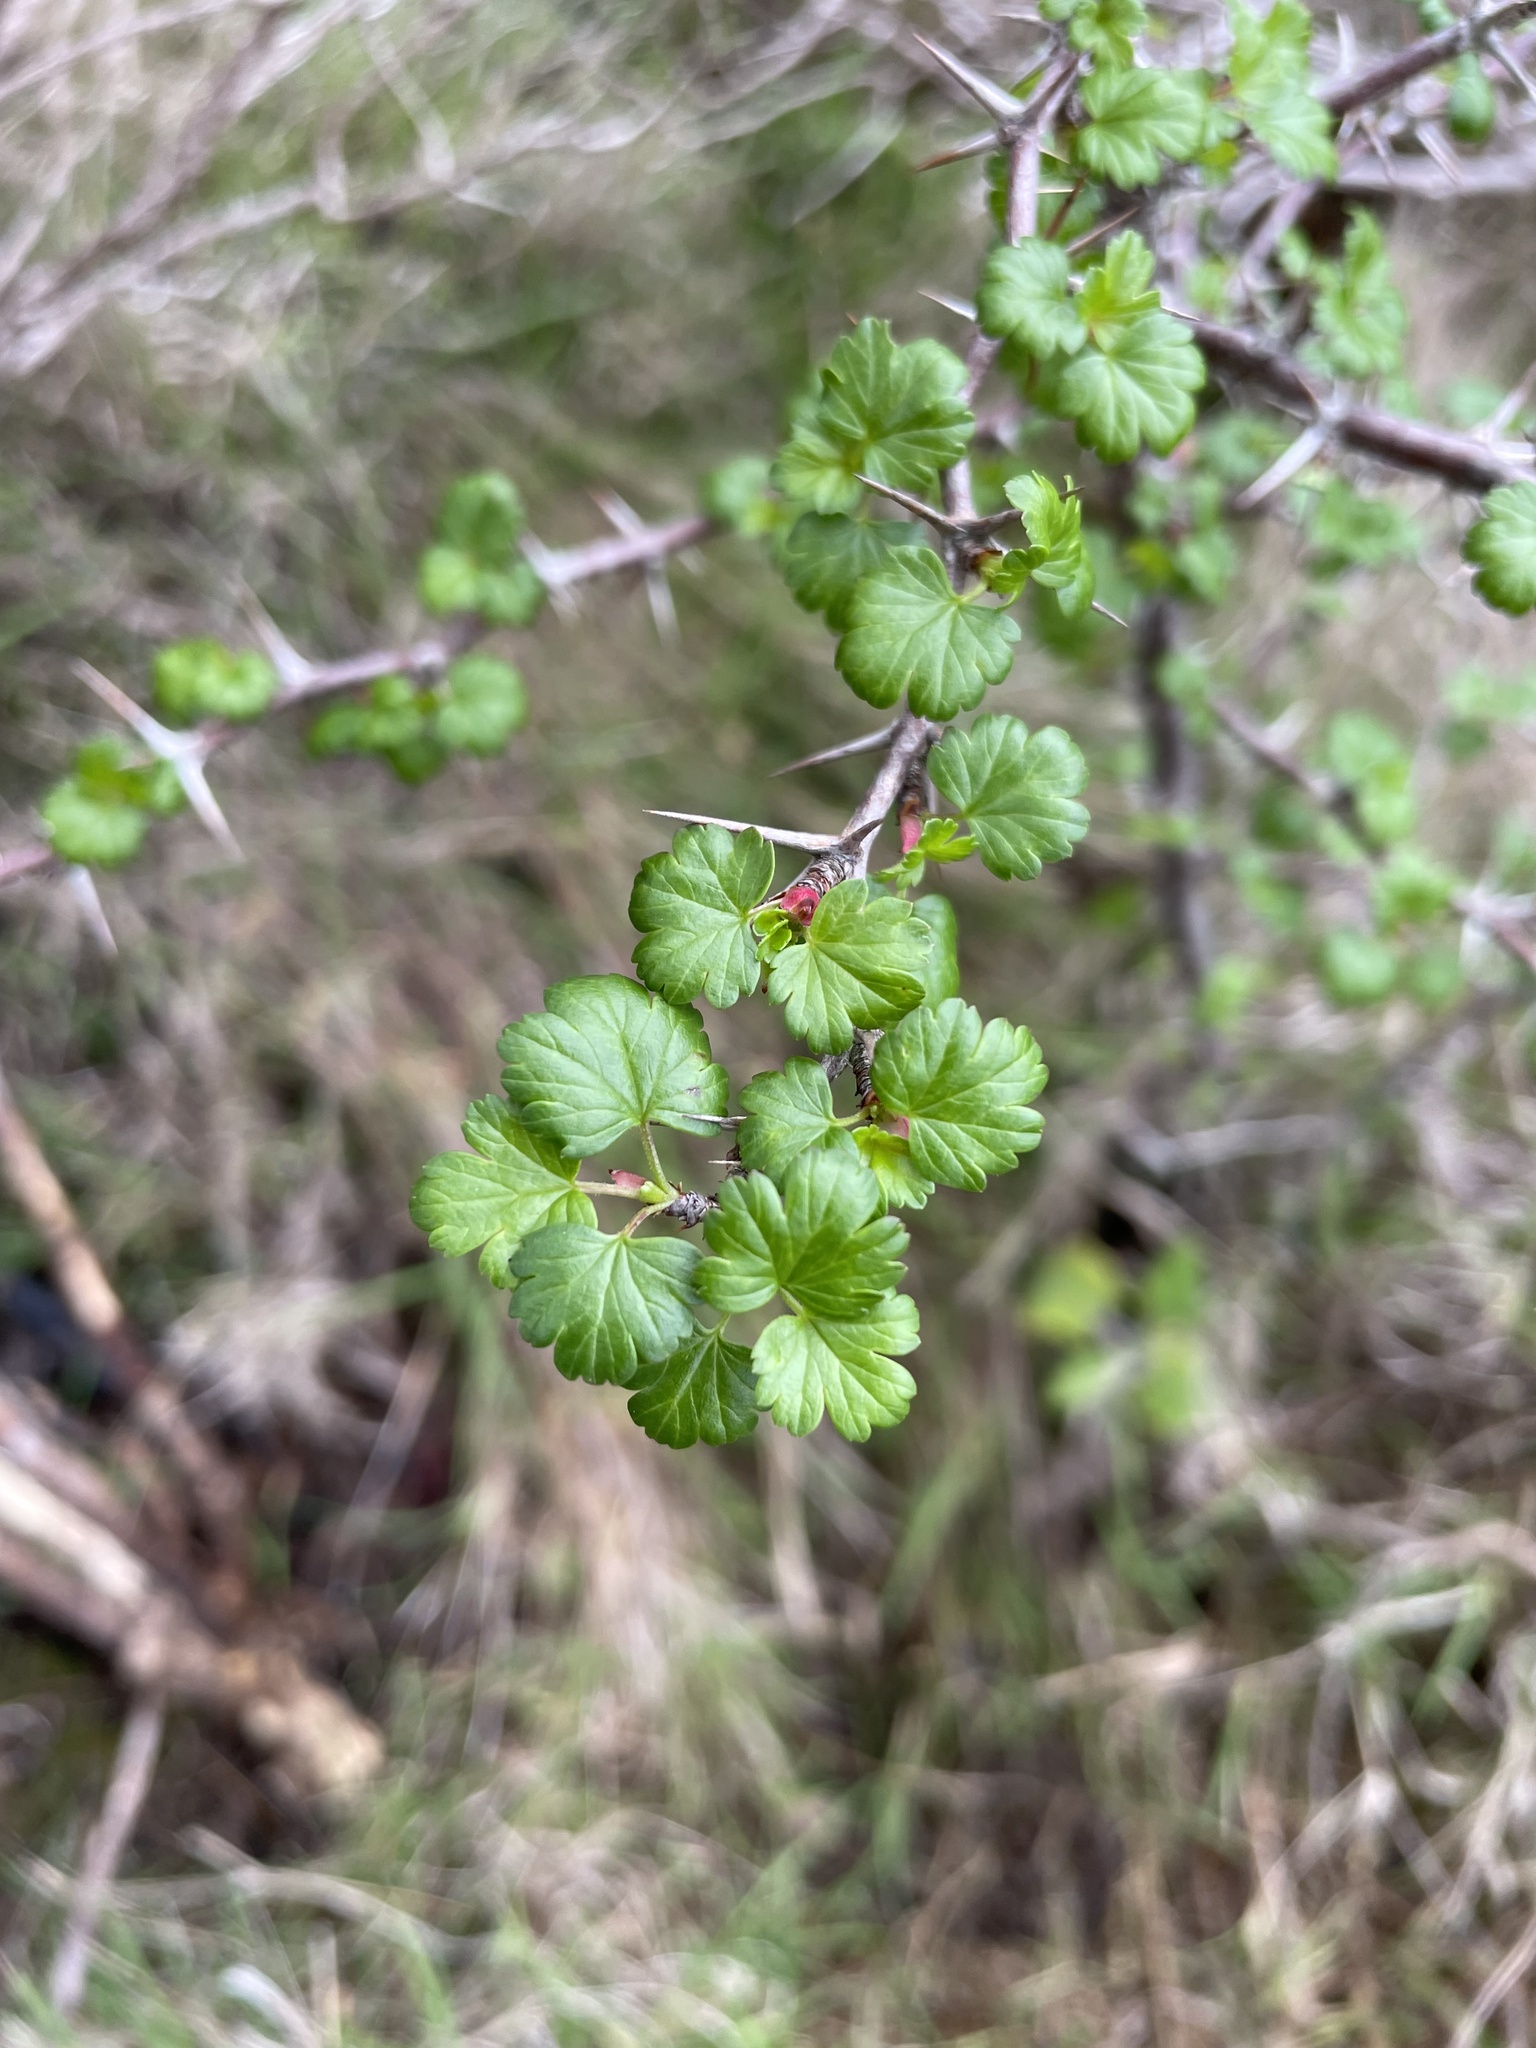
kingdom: Plantae
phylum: Tracheophyta
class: Magnoliopsida
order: Saxifragales
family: Grossulariaceae
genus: Ribes
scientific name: Ribes californicum
